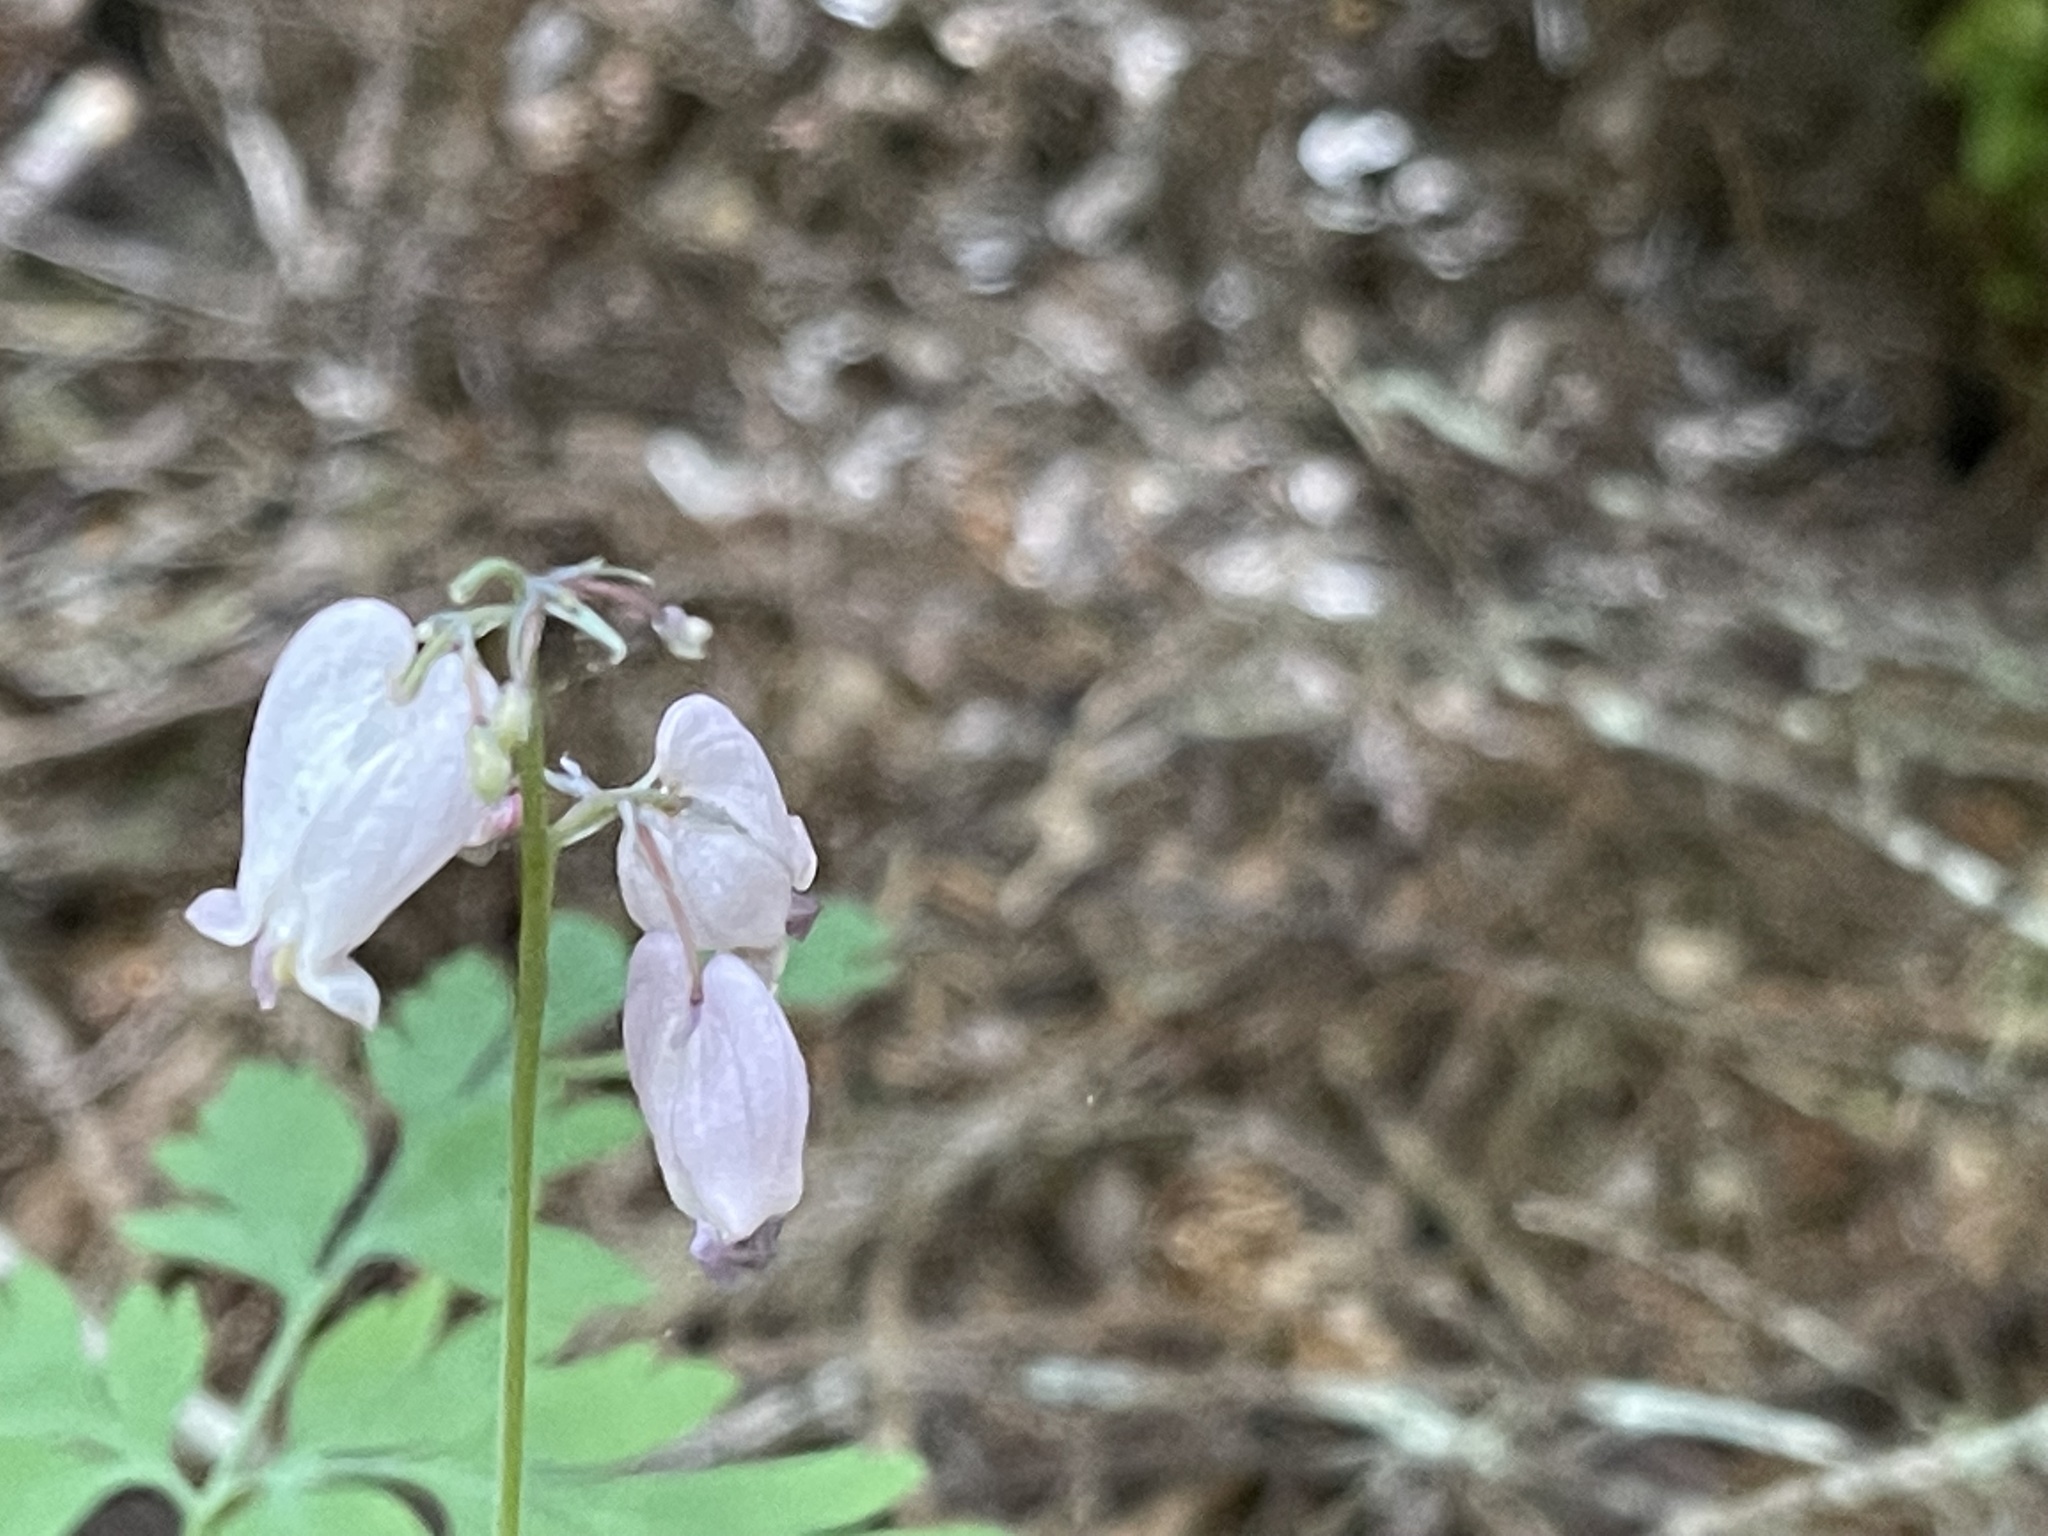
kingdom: Plantae
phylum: Tracheophyta
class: Magnoliopsida
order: Ranunculales
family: Papaveraceae
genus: Dicentra
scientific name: Dicentra formosa
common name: Bleeding-heart
